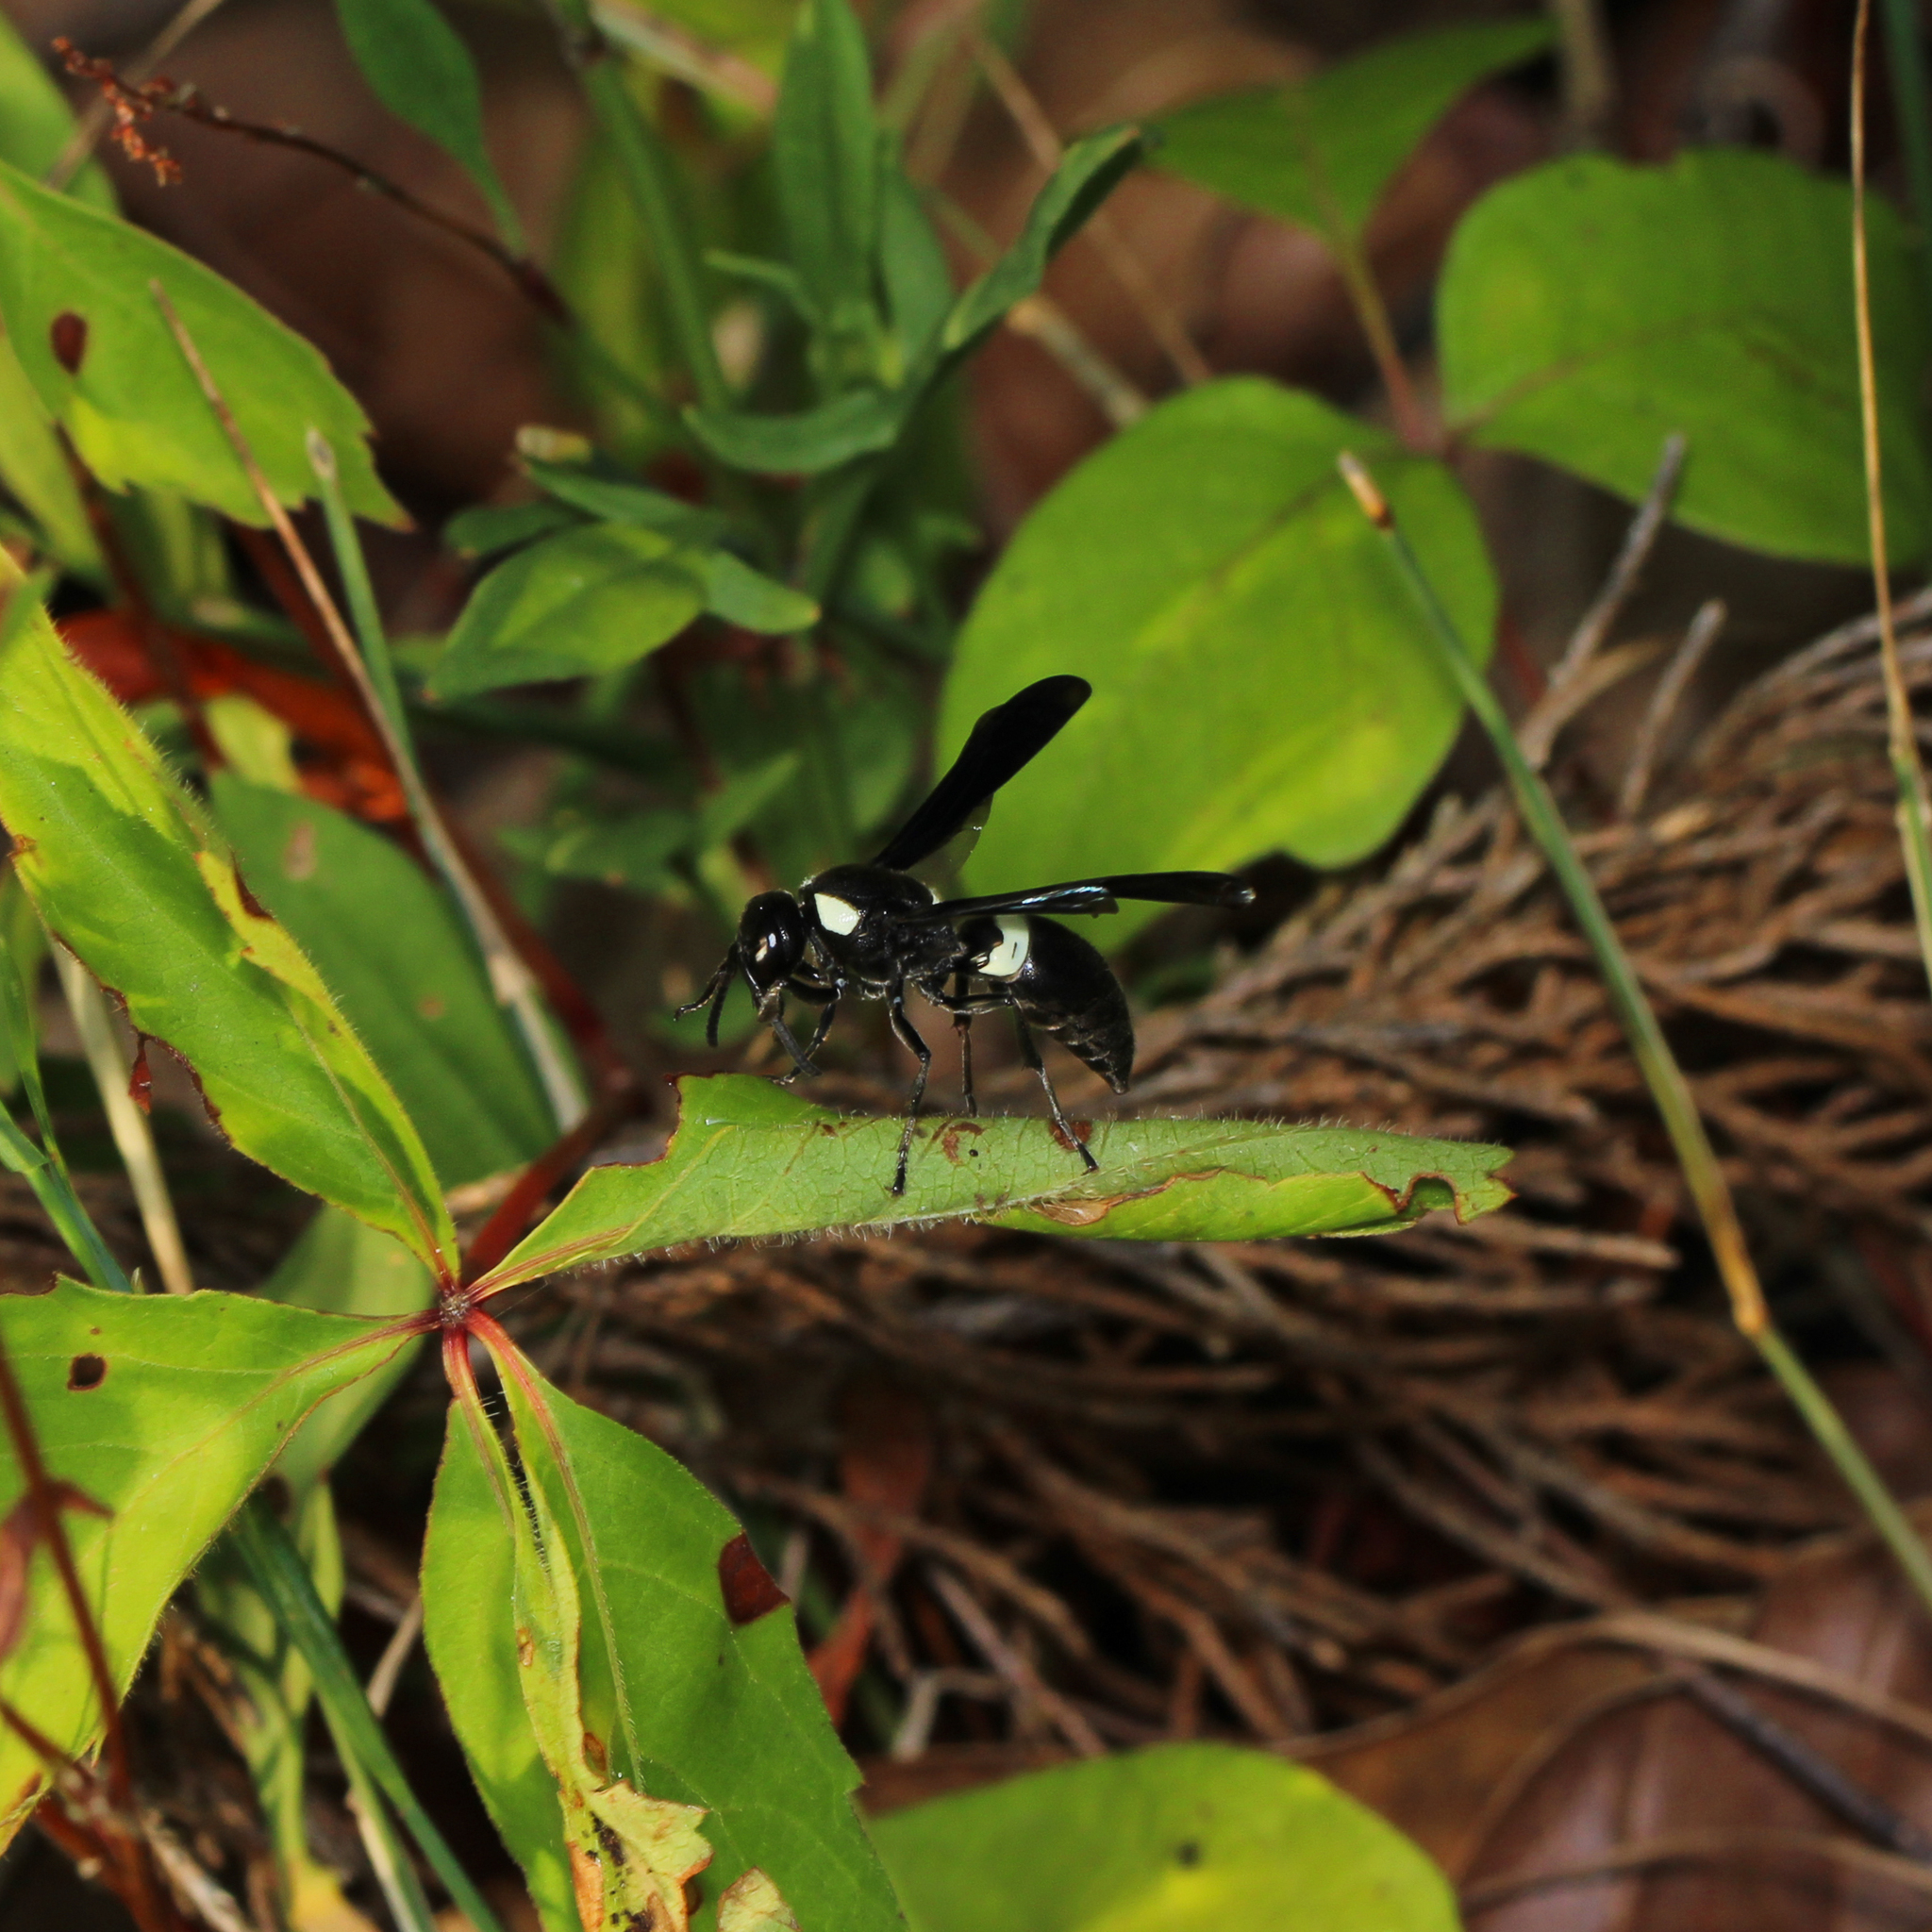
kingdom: Animalia
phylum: Arthropoda
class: Insecta
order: Hymenoptera
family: Eumenidae
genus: Monobia
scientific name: Monobia quadridens
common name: Four-toothed mason wasp
